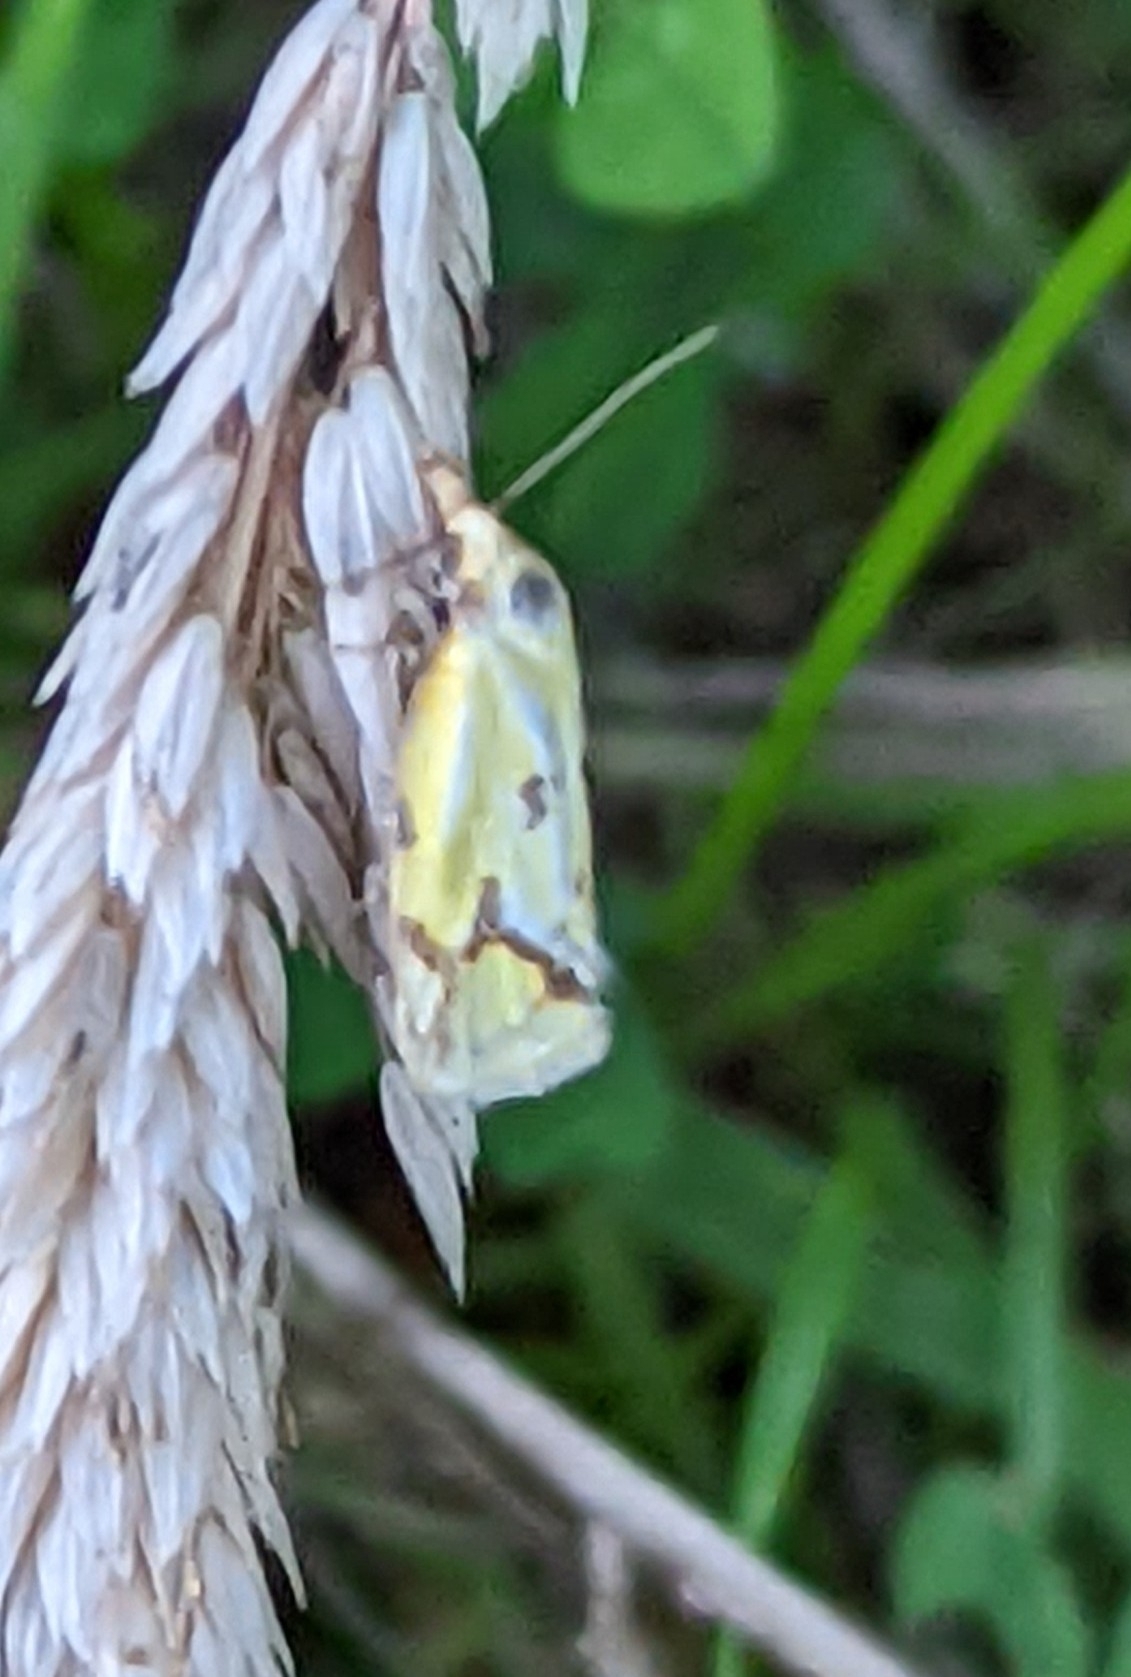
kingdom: Animalia
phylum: Arthropoda
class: Insecta
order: Lepidoptera
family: Tortricidae
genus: Agapeta
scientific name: Agapeta hamana
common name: Common yellow conch
